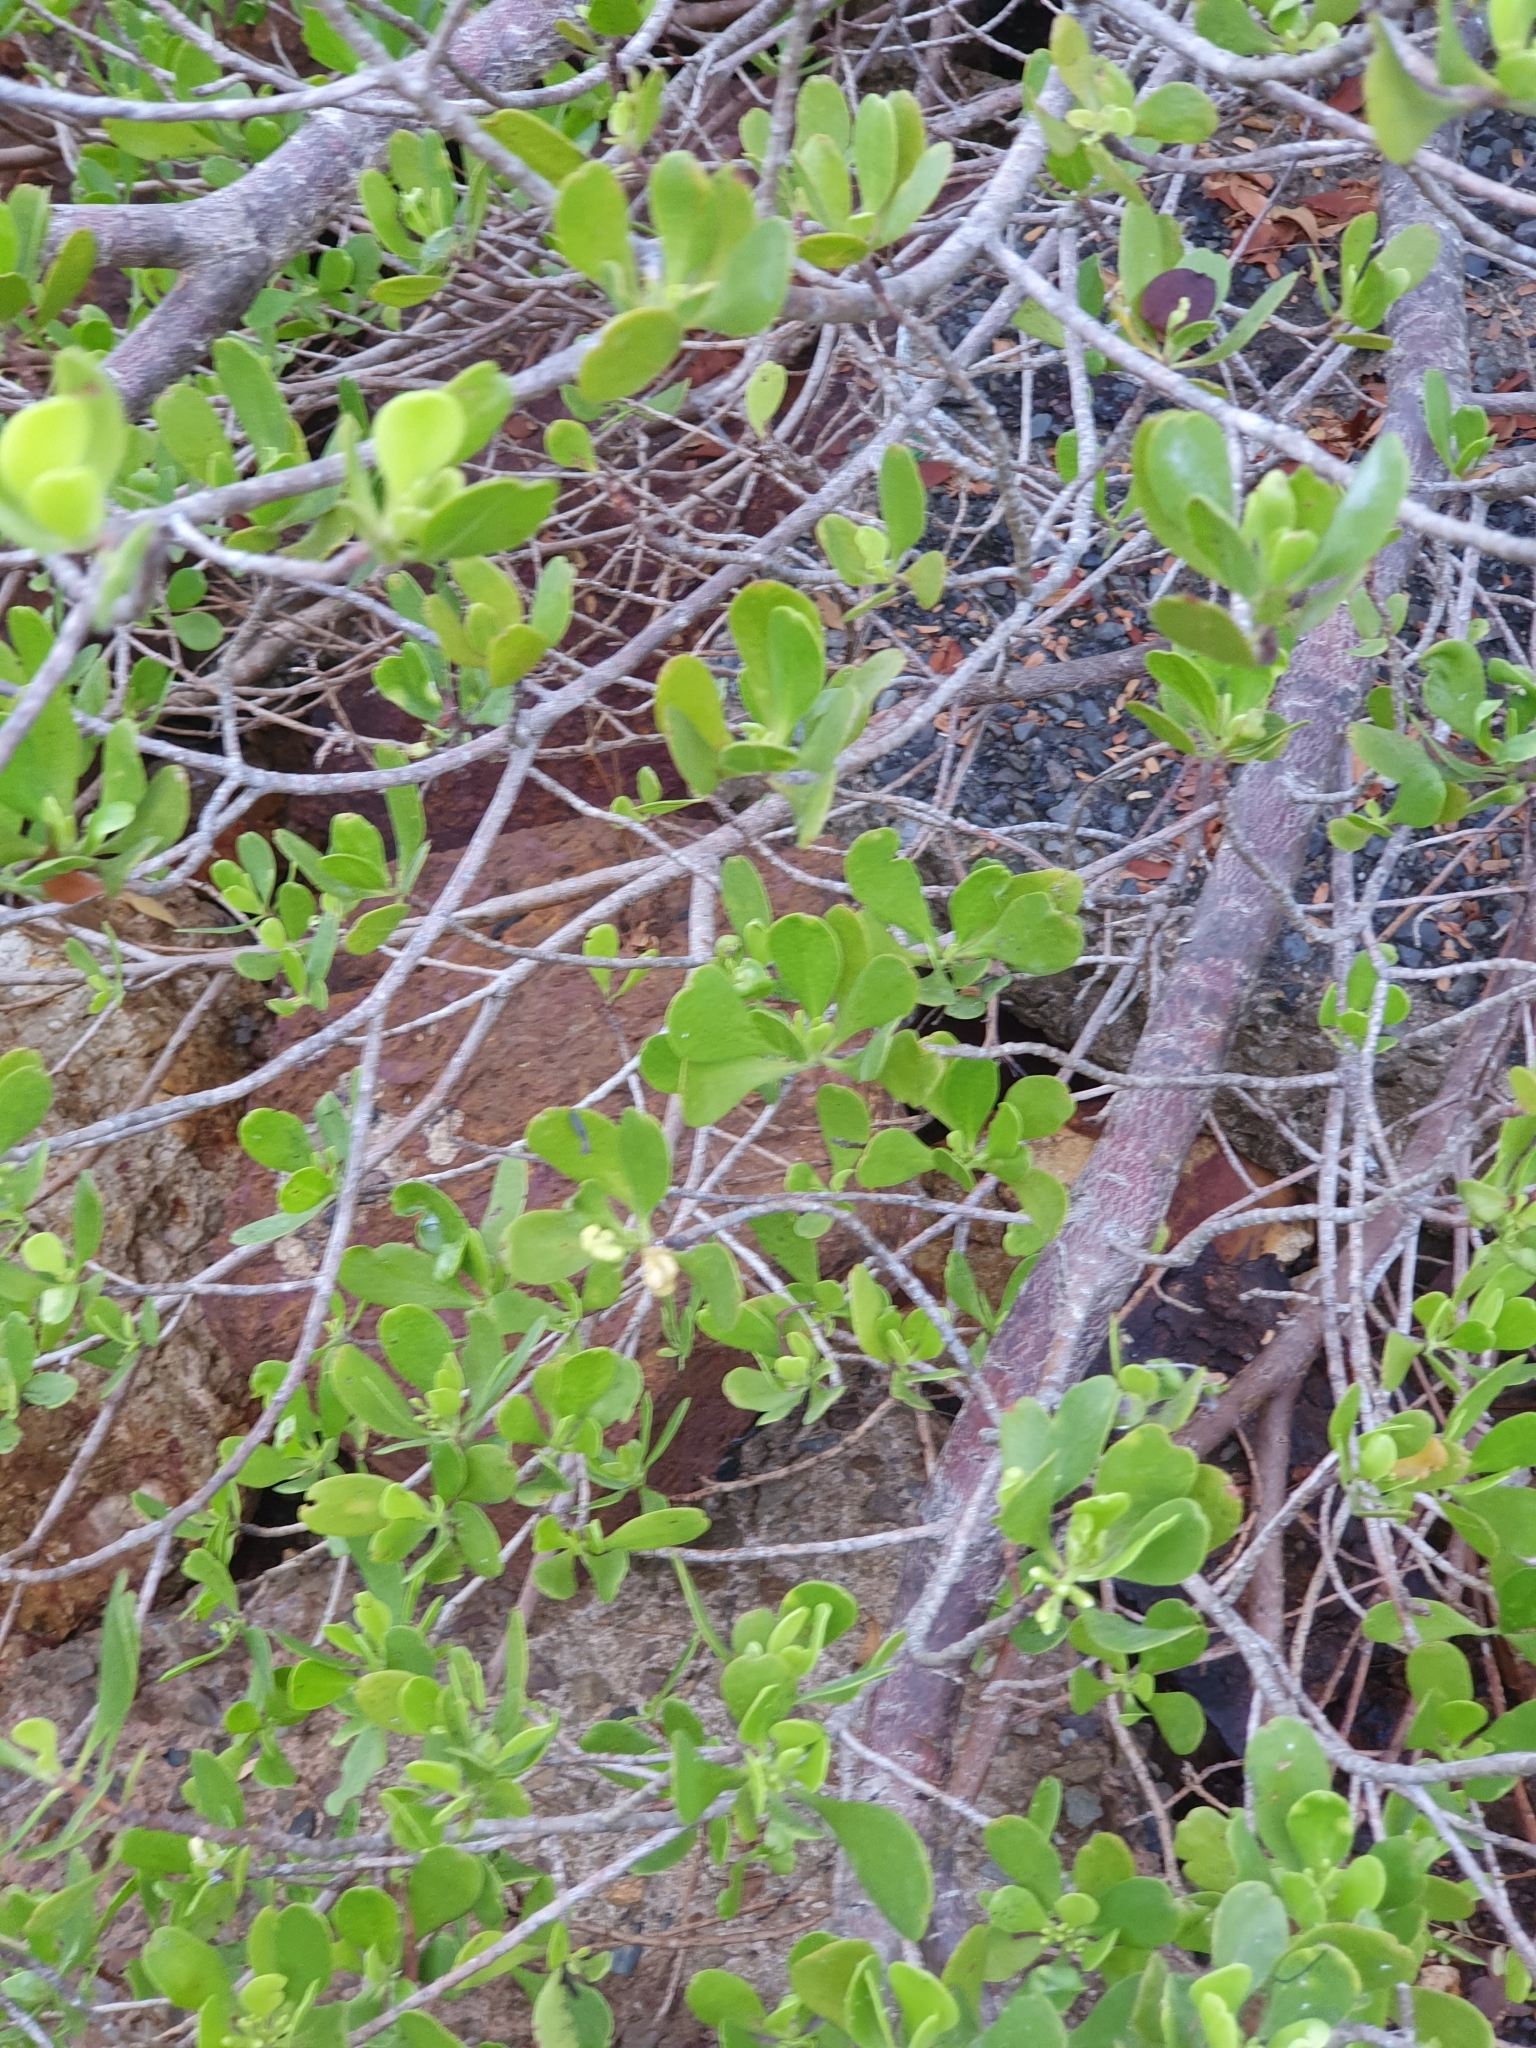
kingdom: Plantae
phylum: Tracheophyta
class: Magnoliopsida
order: Myrtales
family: Combretaceae
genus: Lumnitzera
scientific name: Lumnitzera racemosa
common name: White-flowered black mangrove
